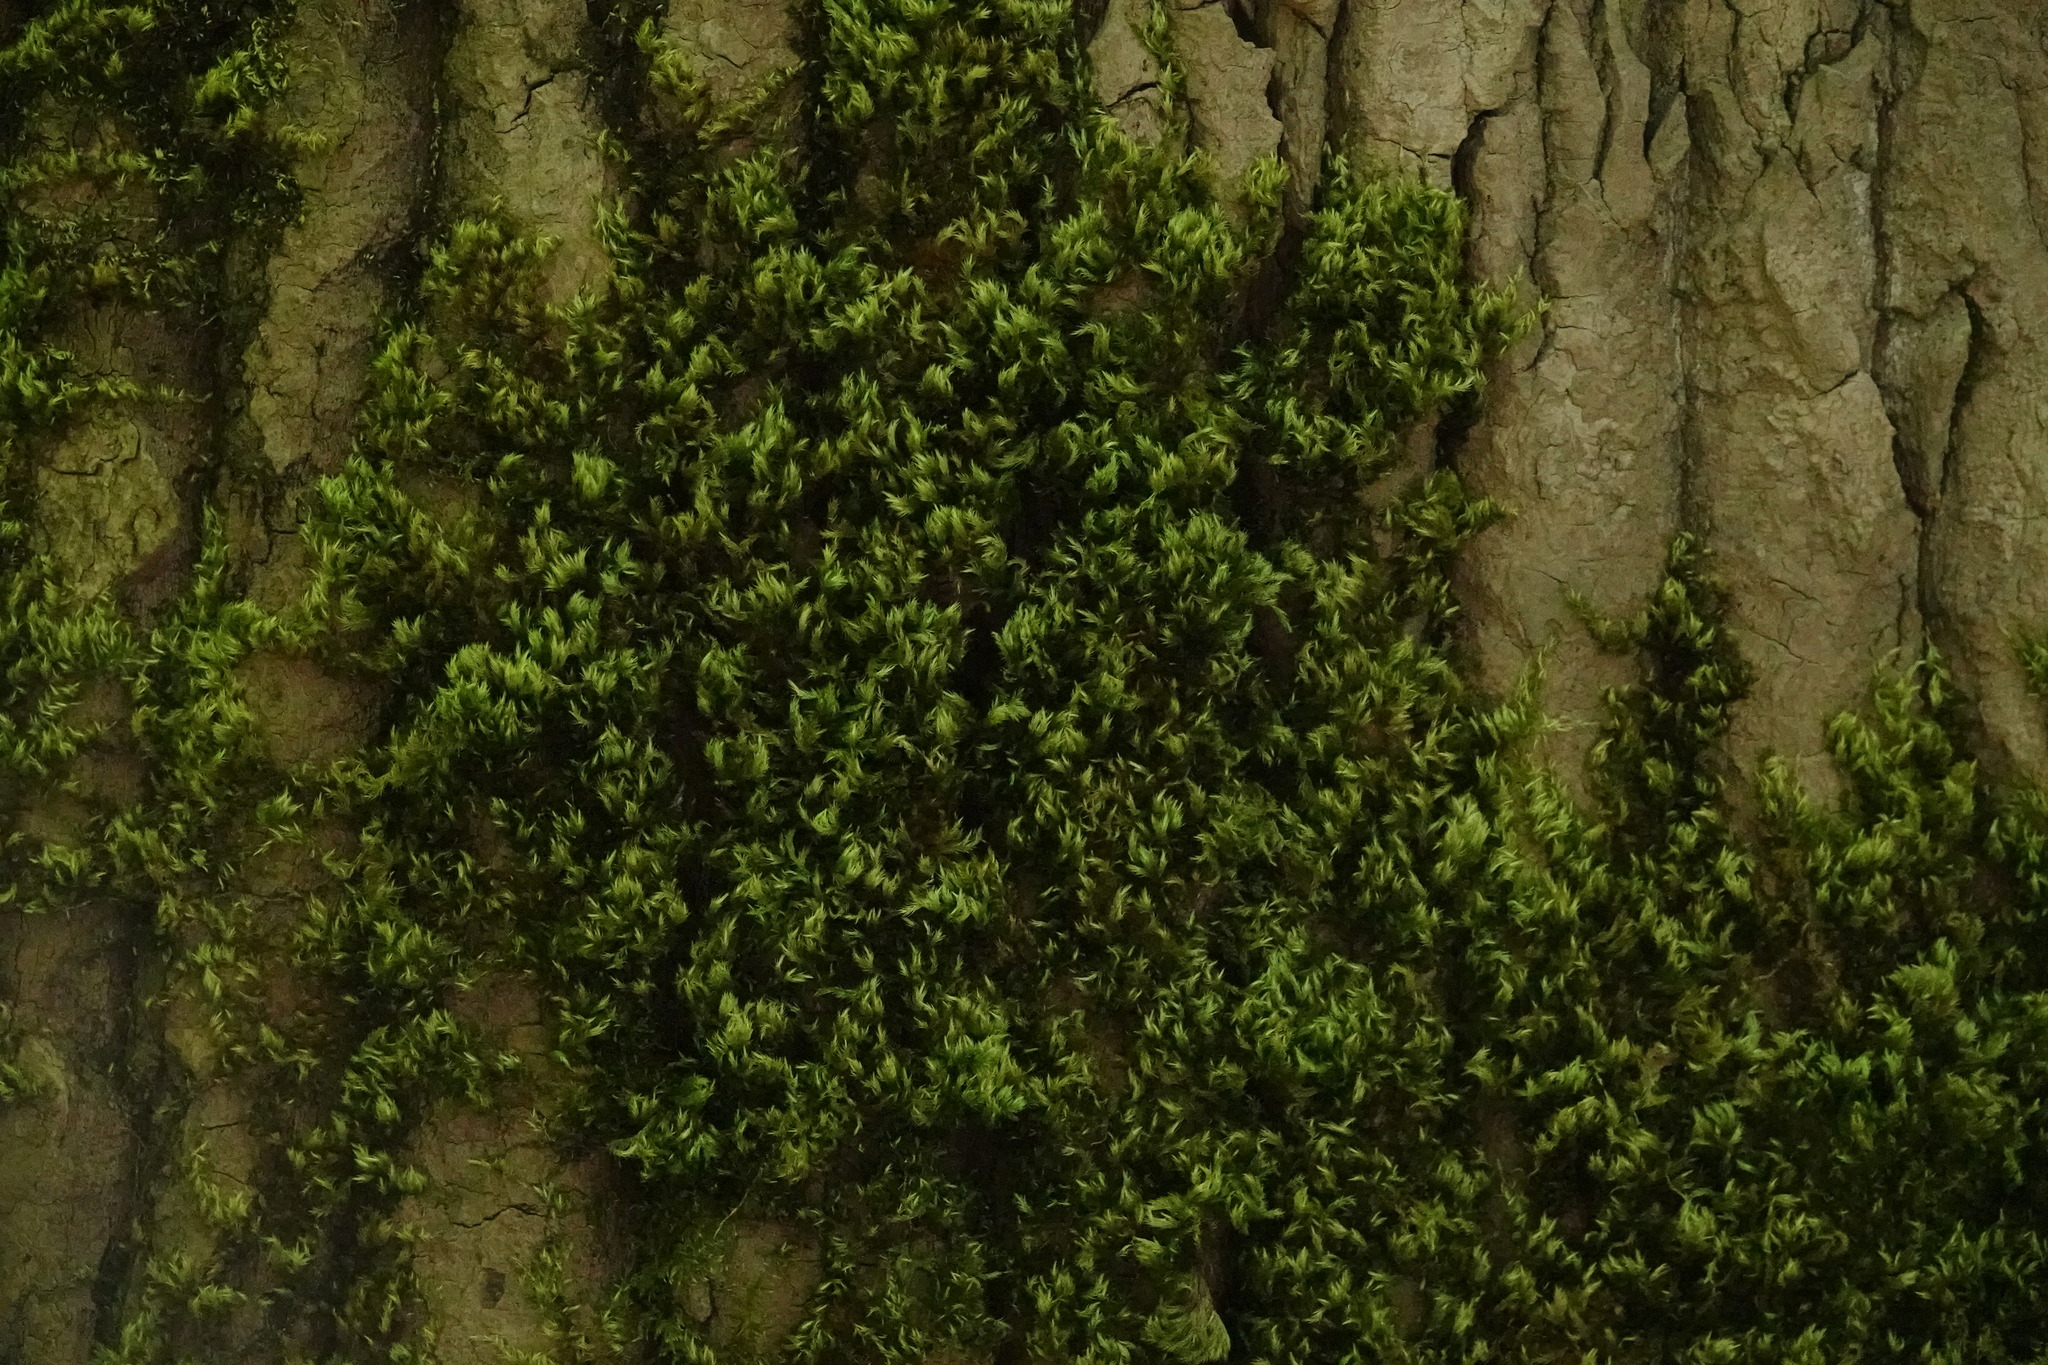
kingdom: Plantae
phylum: Bryophyta
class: Bryopsida
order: Hypnales
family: Brachytheciaceae
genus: Homalothecium
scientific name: Homalothecium fulgescens
